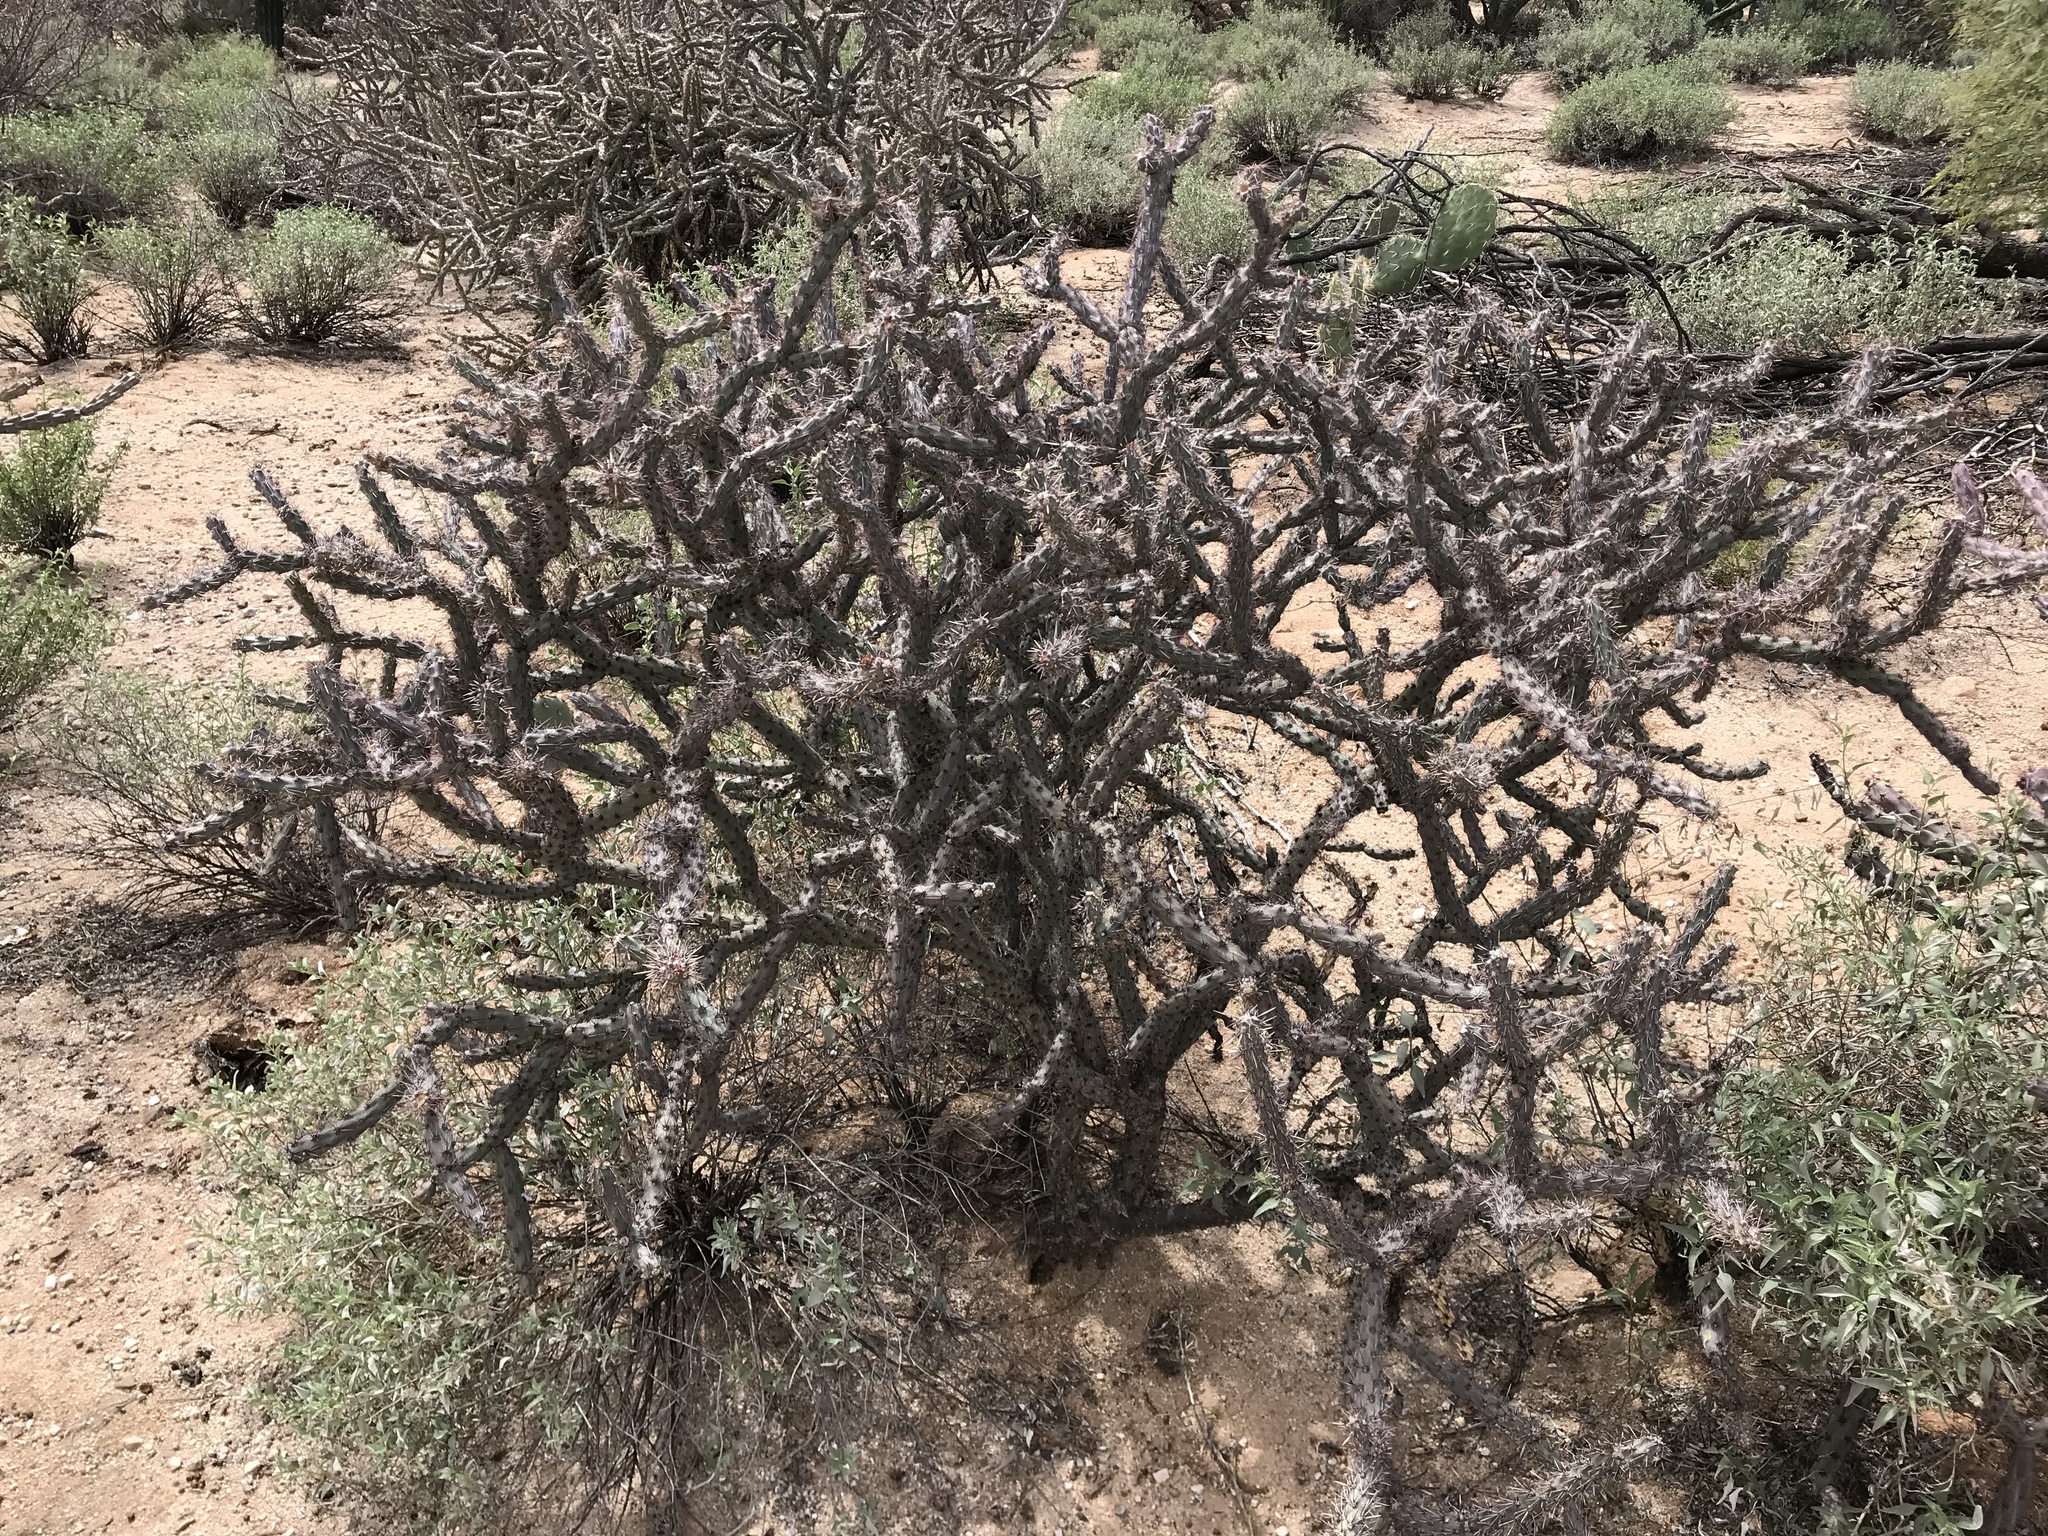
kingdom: Plantae
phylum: Tracheophyta
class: Magnoliopsida
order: Caryophyllales
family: Cactaceae
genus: Cylindropuntia
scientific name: Cylindropuntia acanthocarpa
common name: Buckhorn cholla
